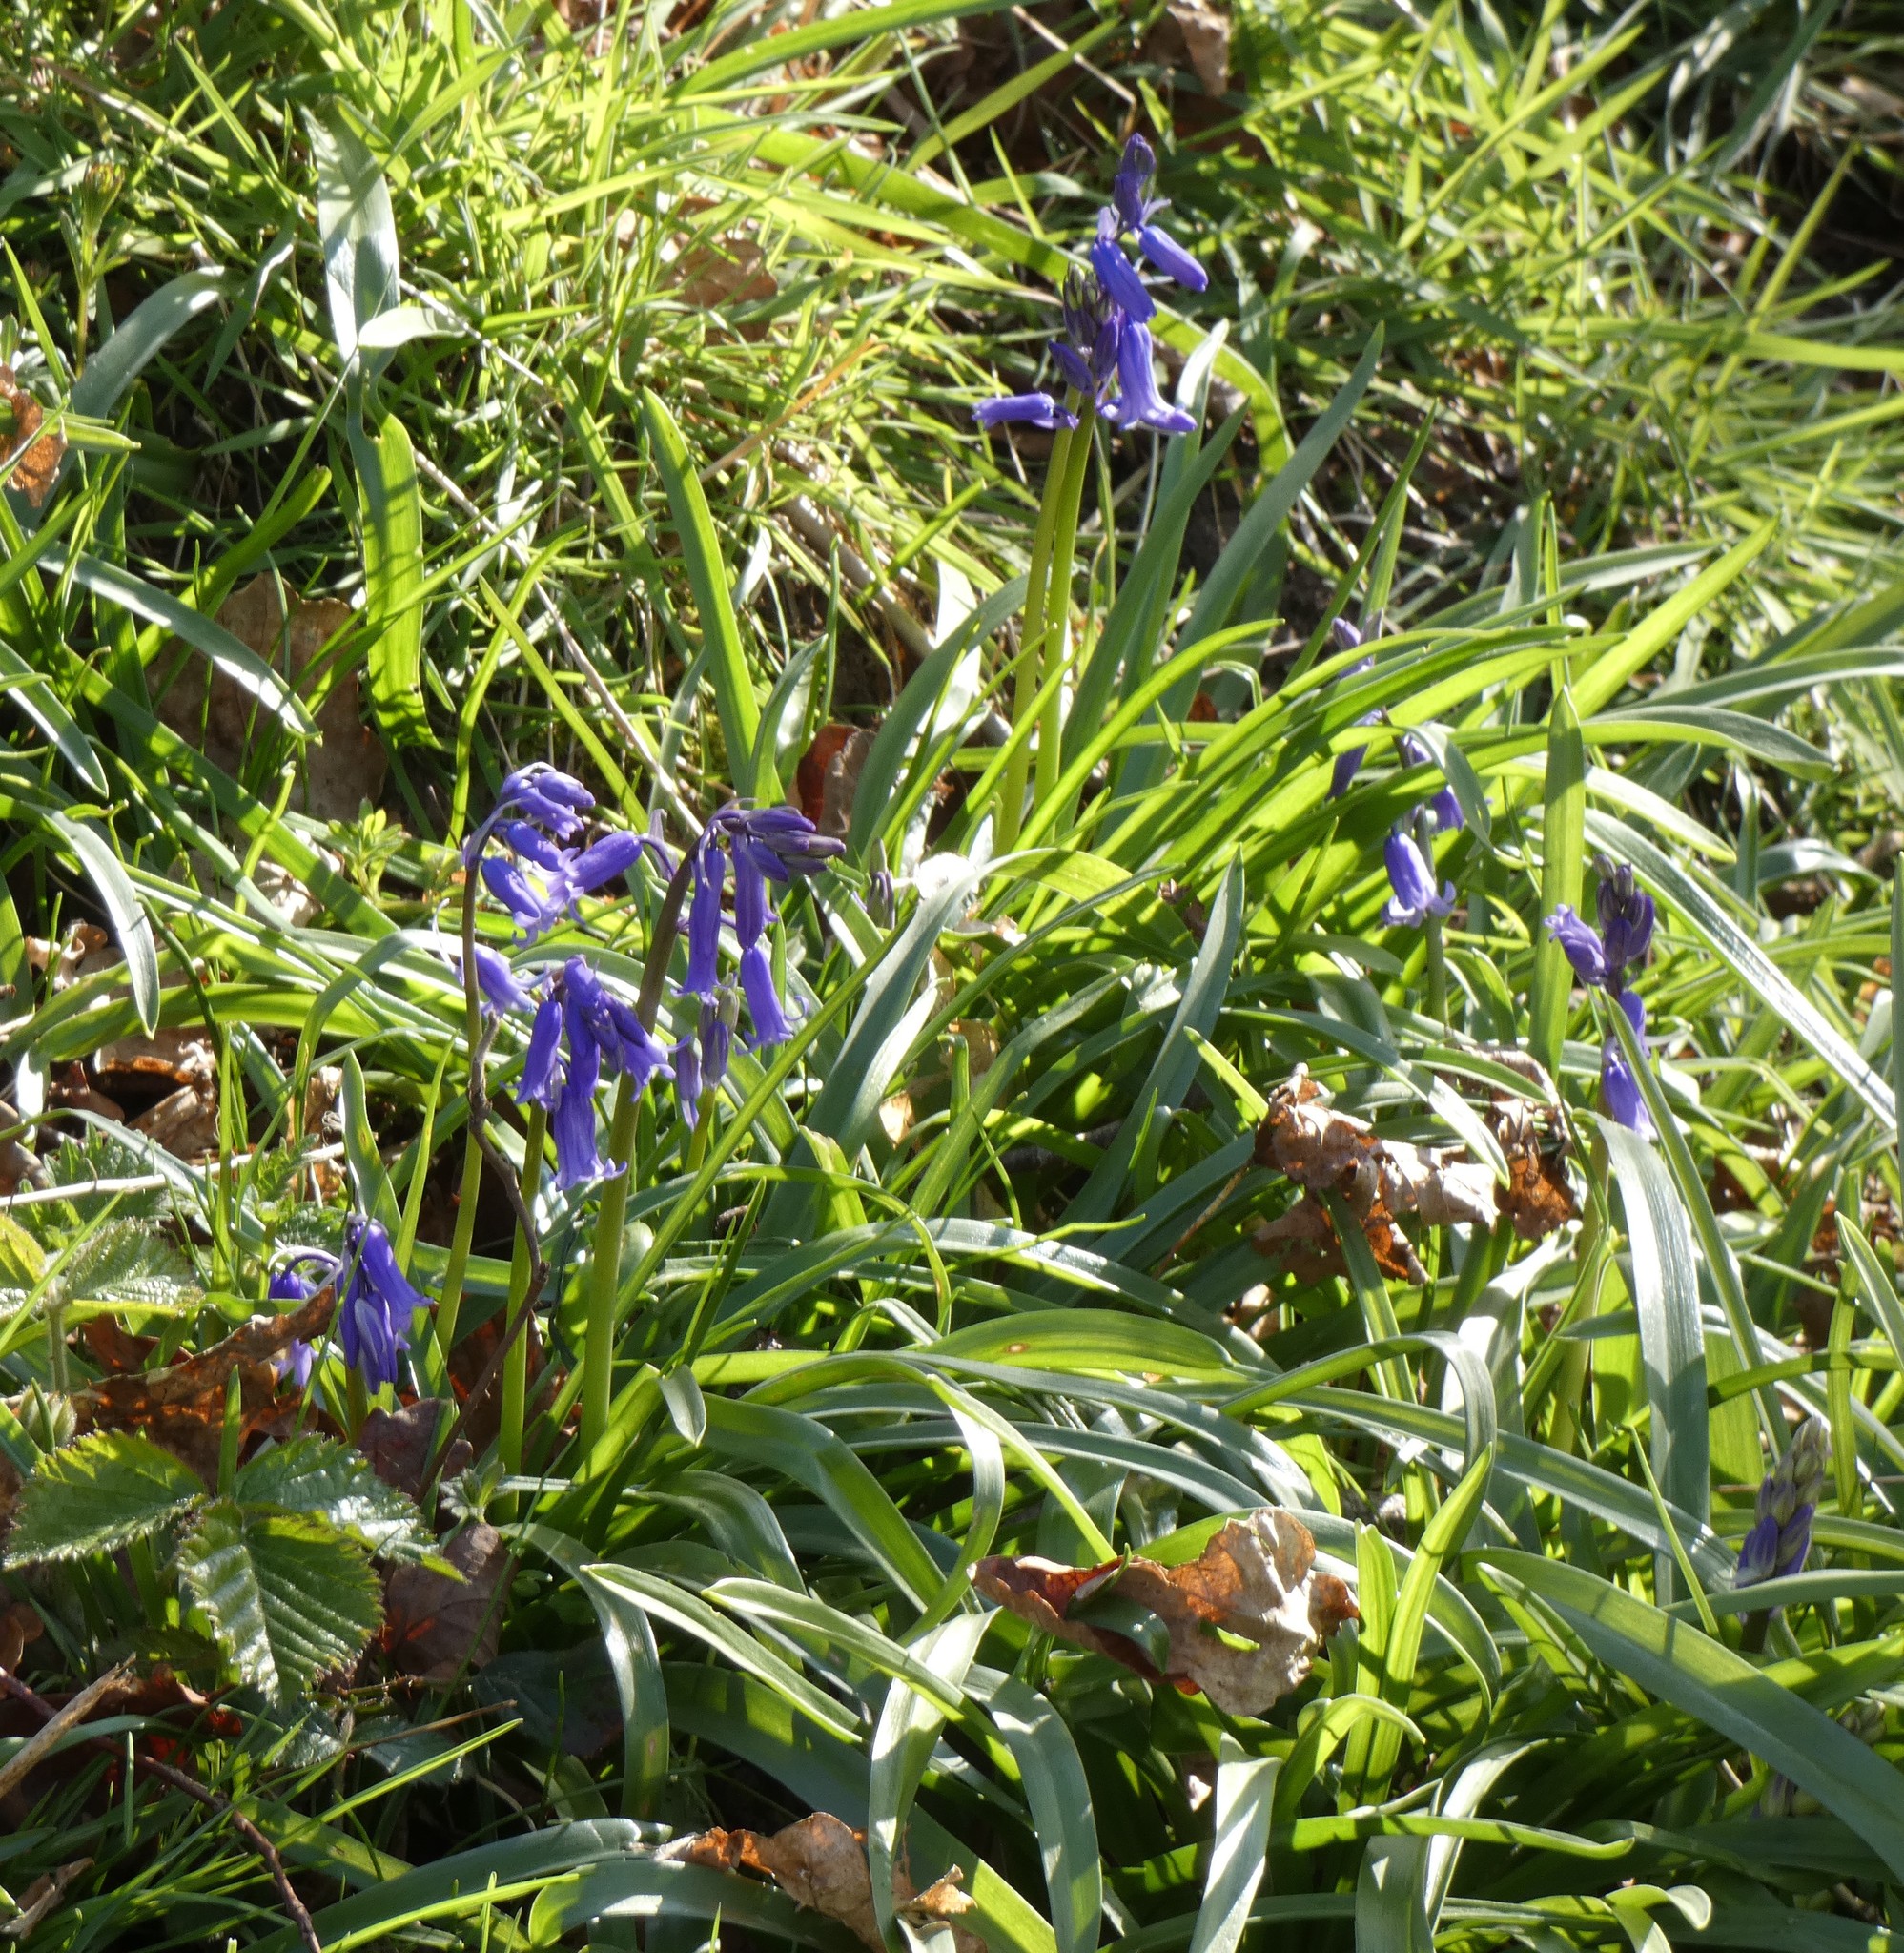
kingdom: Plantae
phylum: Tracheophyta
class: Liliopsida
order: Asparagales
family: Asparagaceae
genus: Hyacinthoides
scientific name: Hyacinthoides non-scripta
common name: Bluebell
